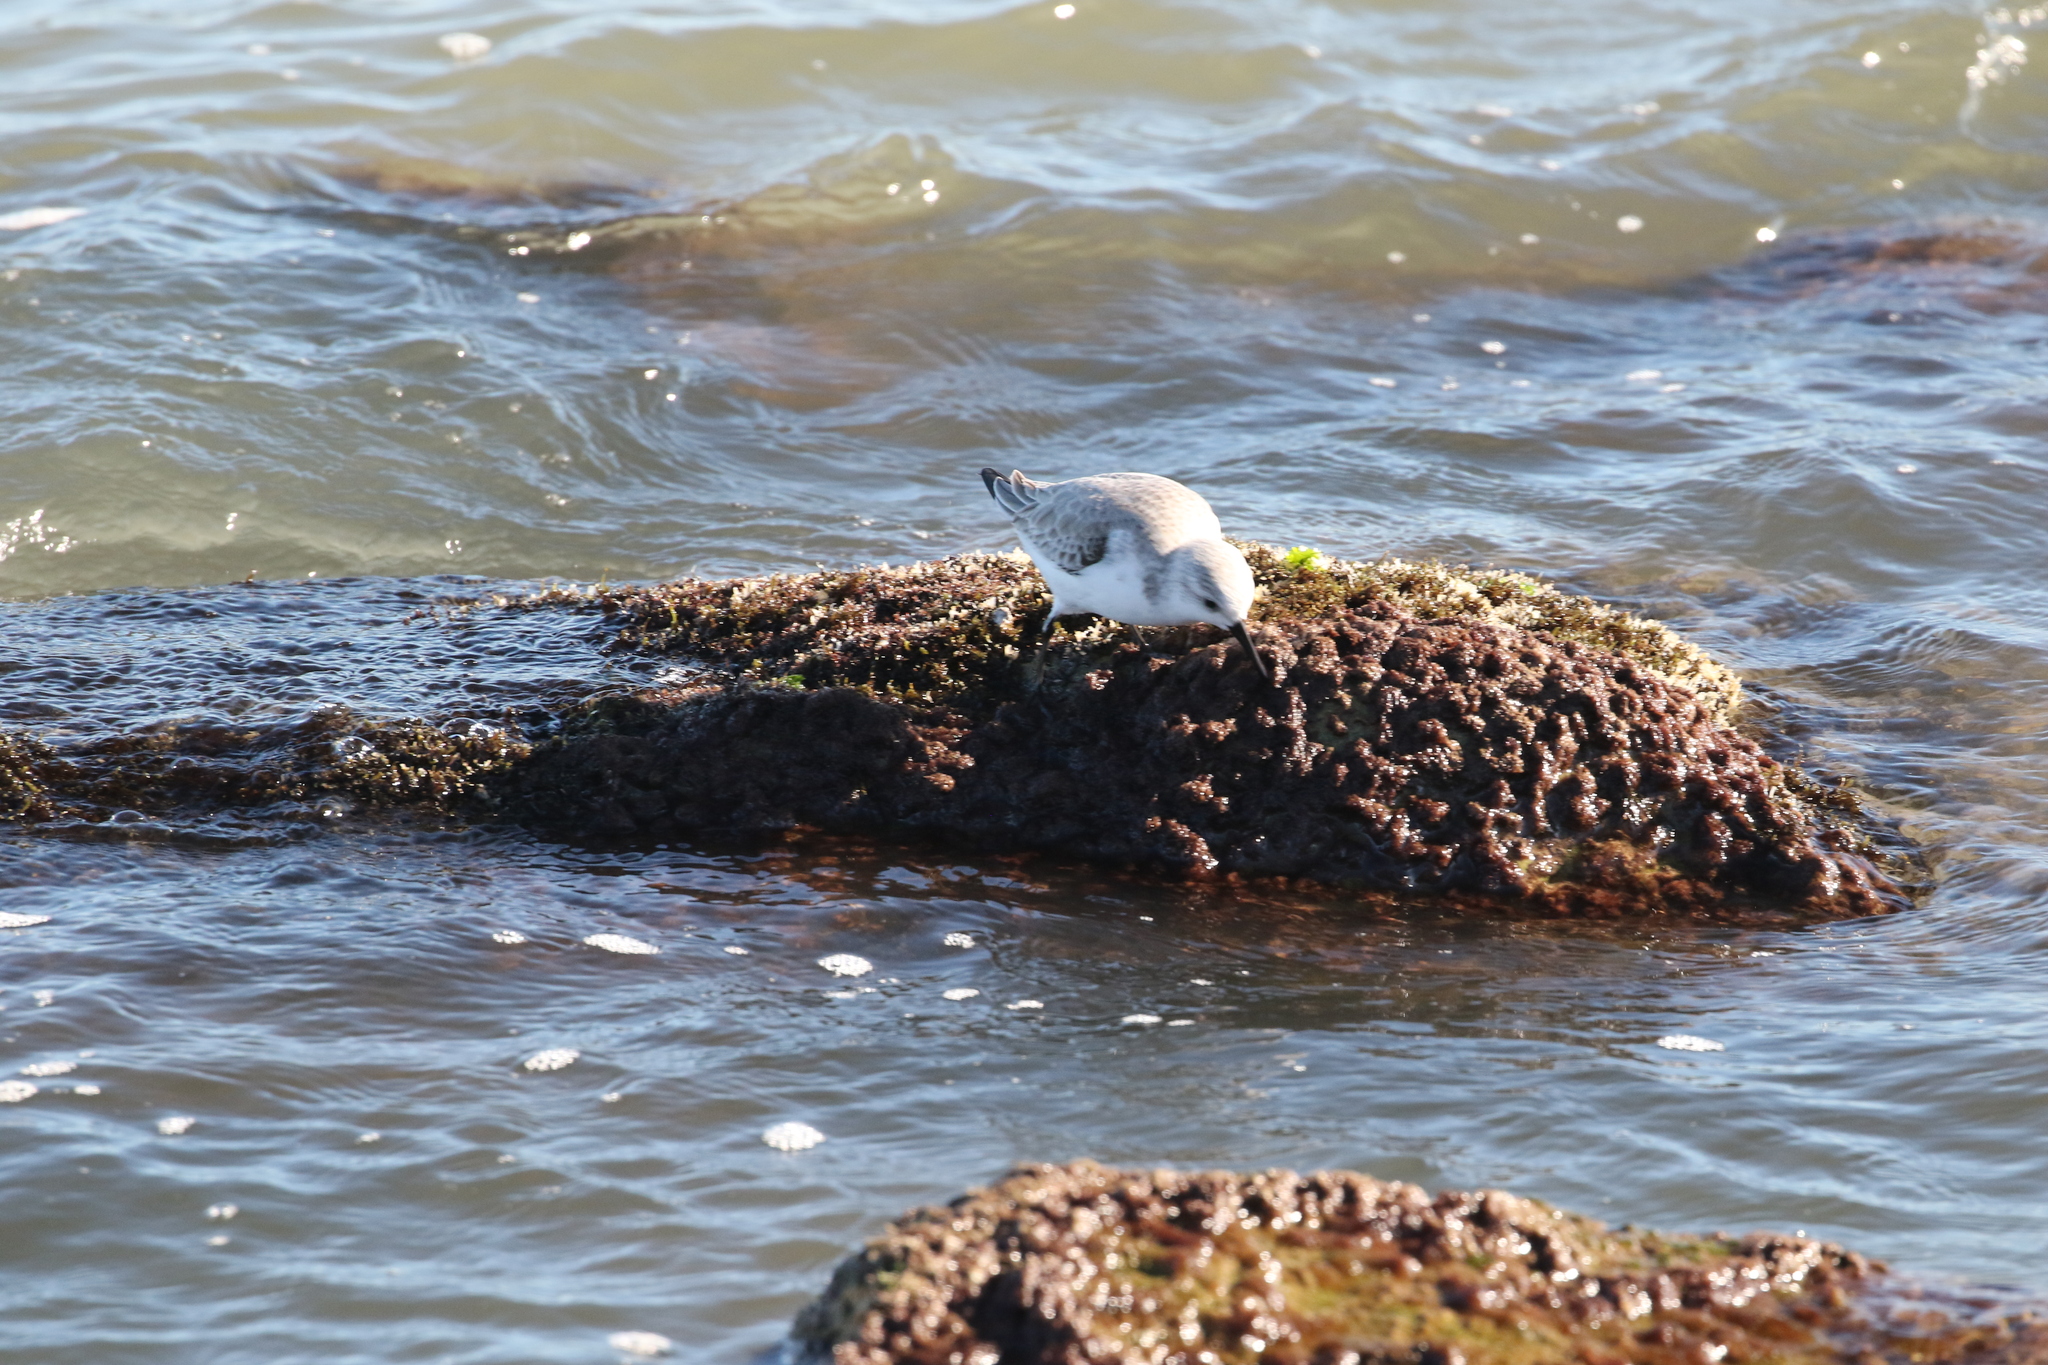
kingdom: Animalia
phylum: Chordata
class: Aves
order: Charadriiformes
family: Scolopacidae
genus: Calidris
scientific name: Calidris alba
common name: Sanderling
